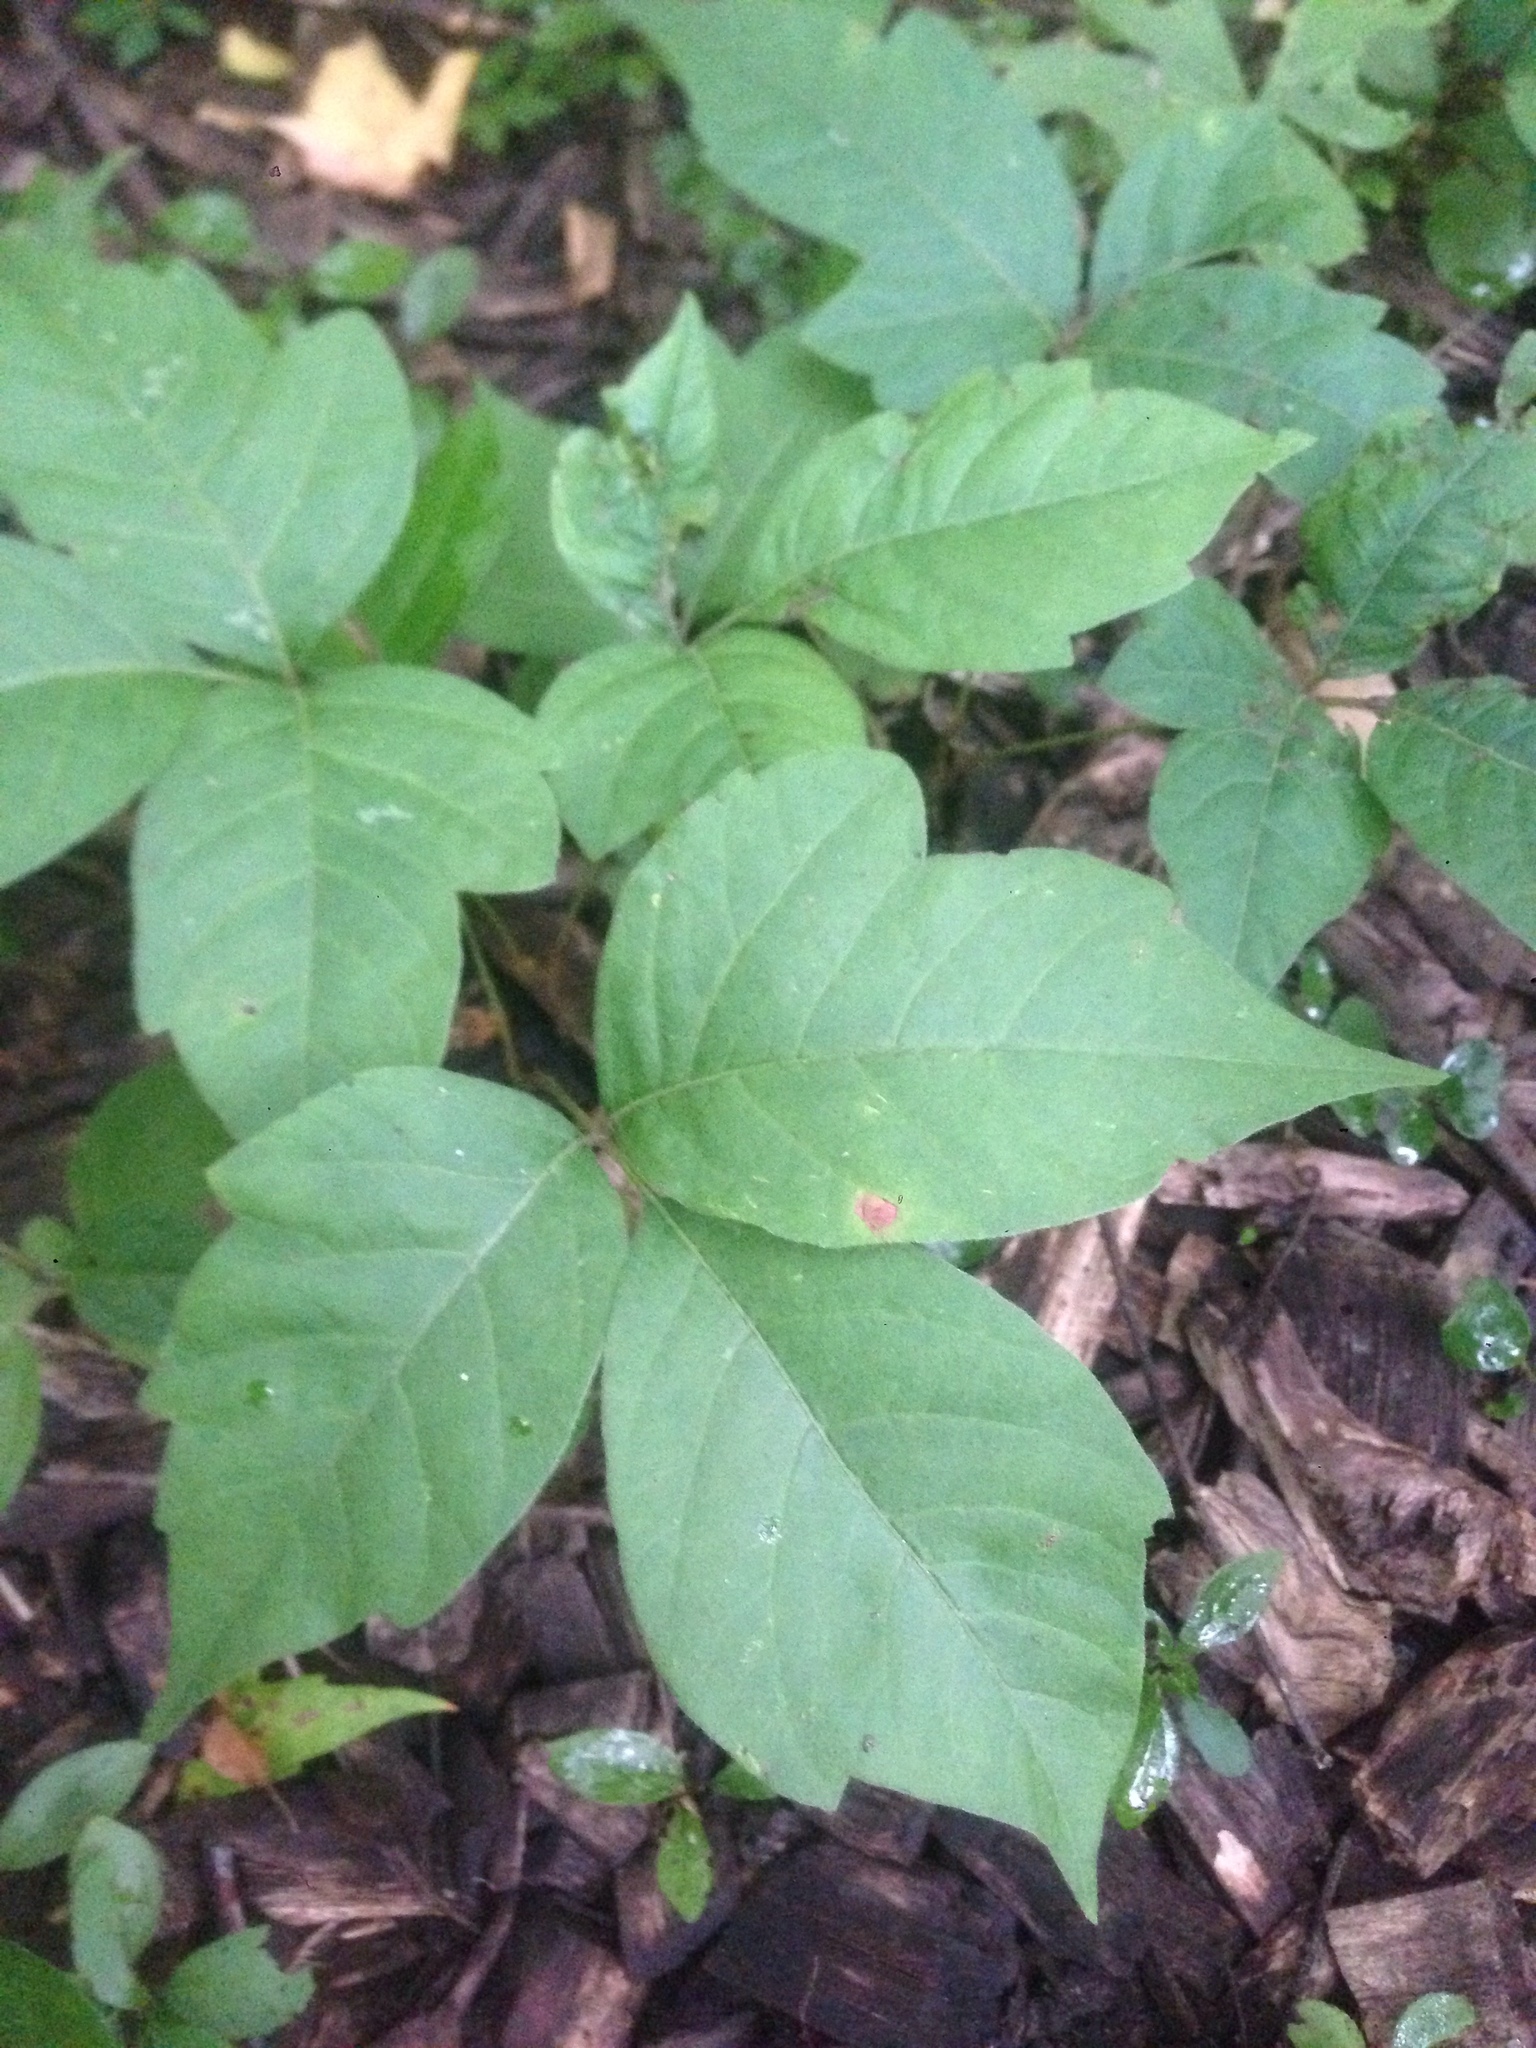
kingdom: Plantae
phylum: Tracheophyta
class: Magnoliopsida
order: Sapindales
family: Anacardiaceae
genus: Toxicodendron
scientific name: Toxicodendron radicans
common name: Poison ivy
